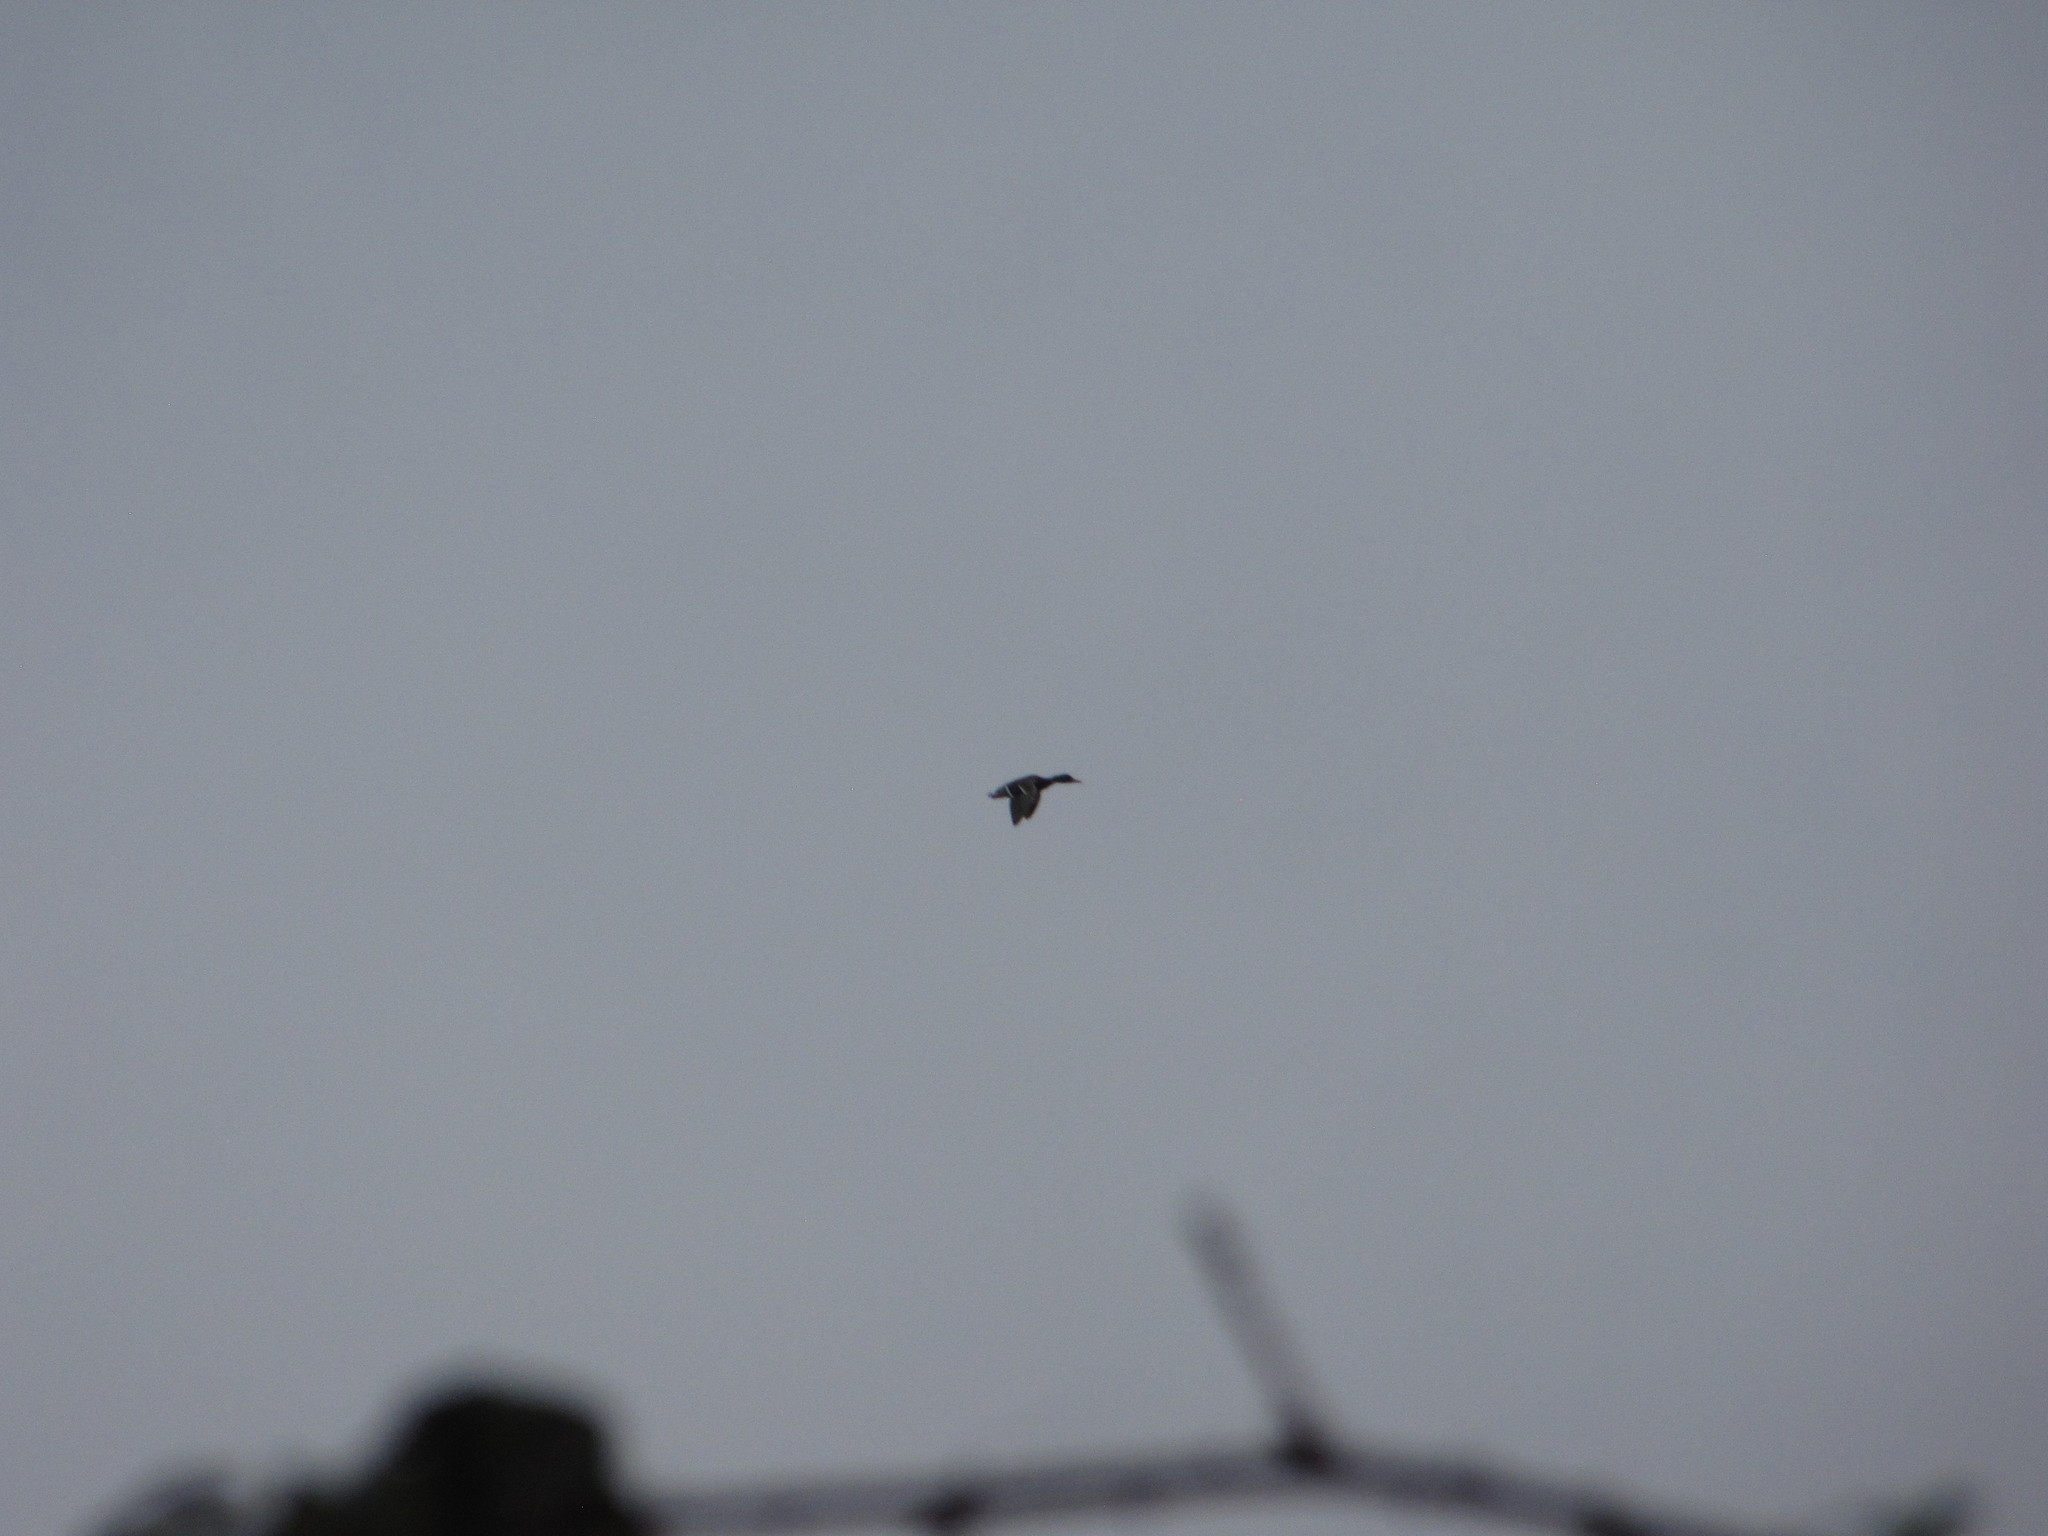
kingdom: Animalia
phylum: Chordata
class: Aves
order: Anseriformes
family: Anatidae
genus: Anas
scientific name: Anas platyrhynchos
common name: Mallard
